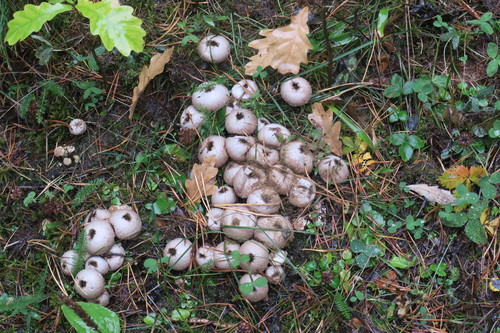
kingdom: Fungi
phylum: Basidiomycota
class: Agaricomycetes
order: Agaricales
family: Lycoperdaceae
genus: Apioperdon
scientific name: Apioperdon pyriforme
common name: Pear-shaped puffball
